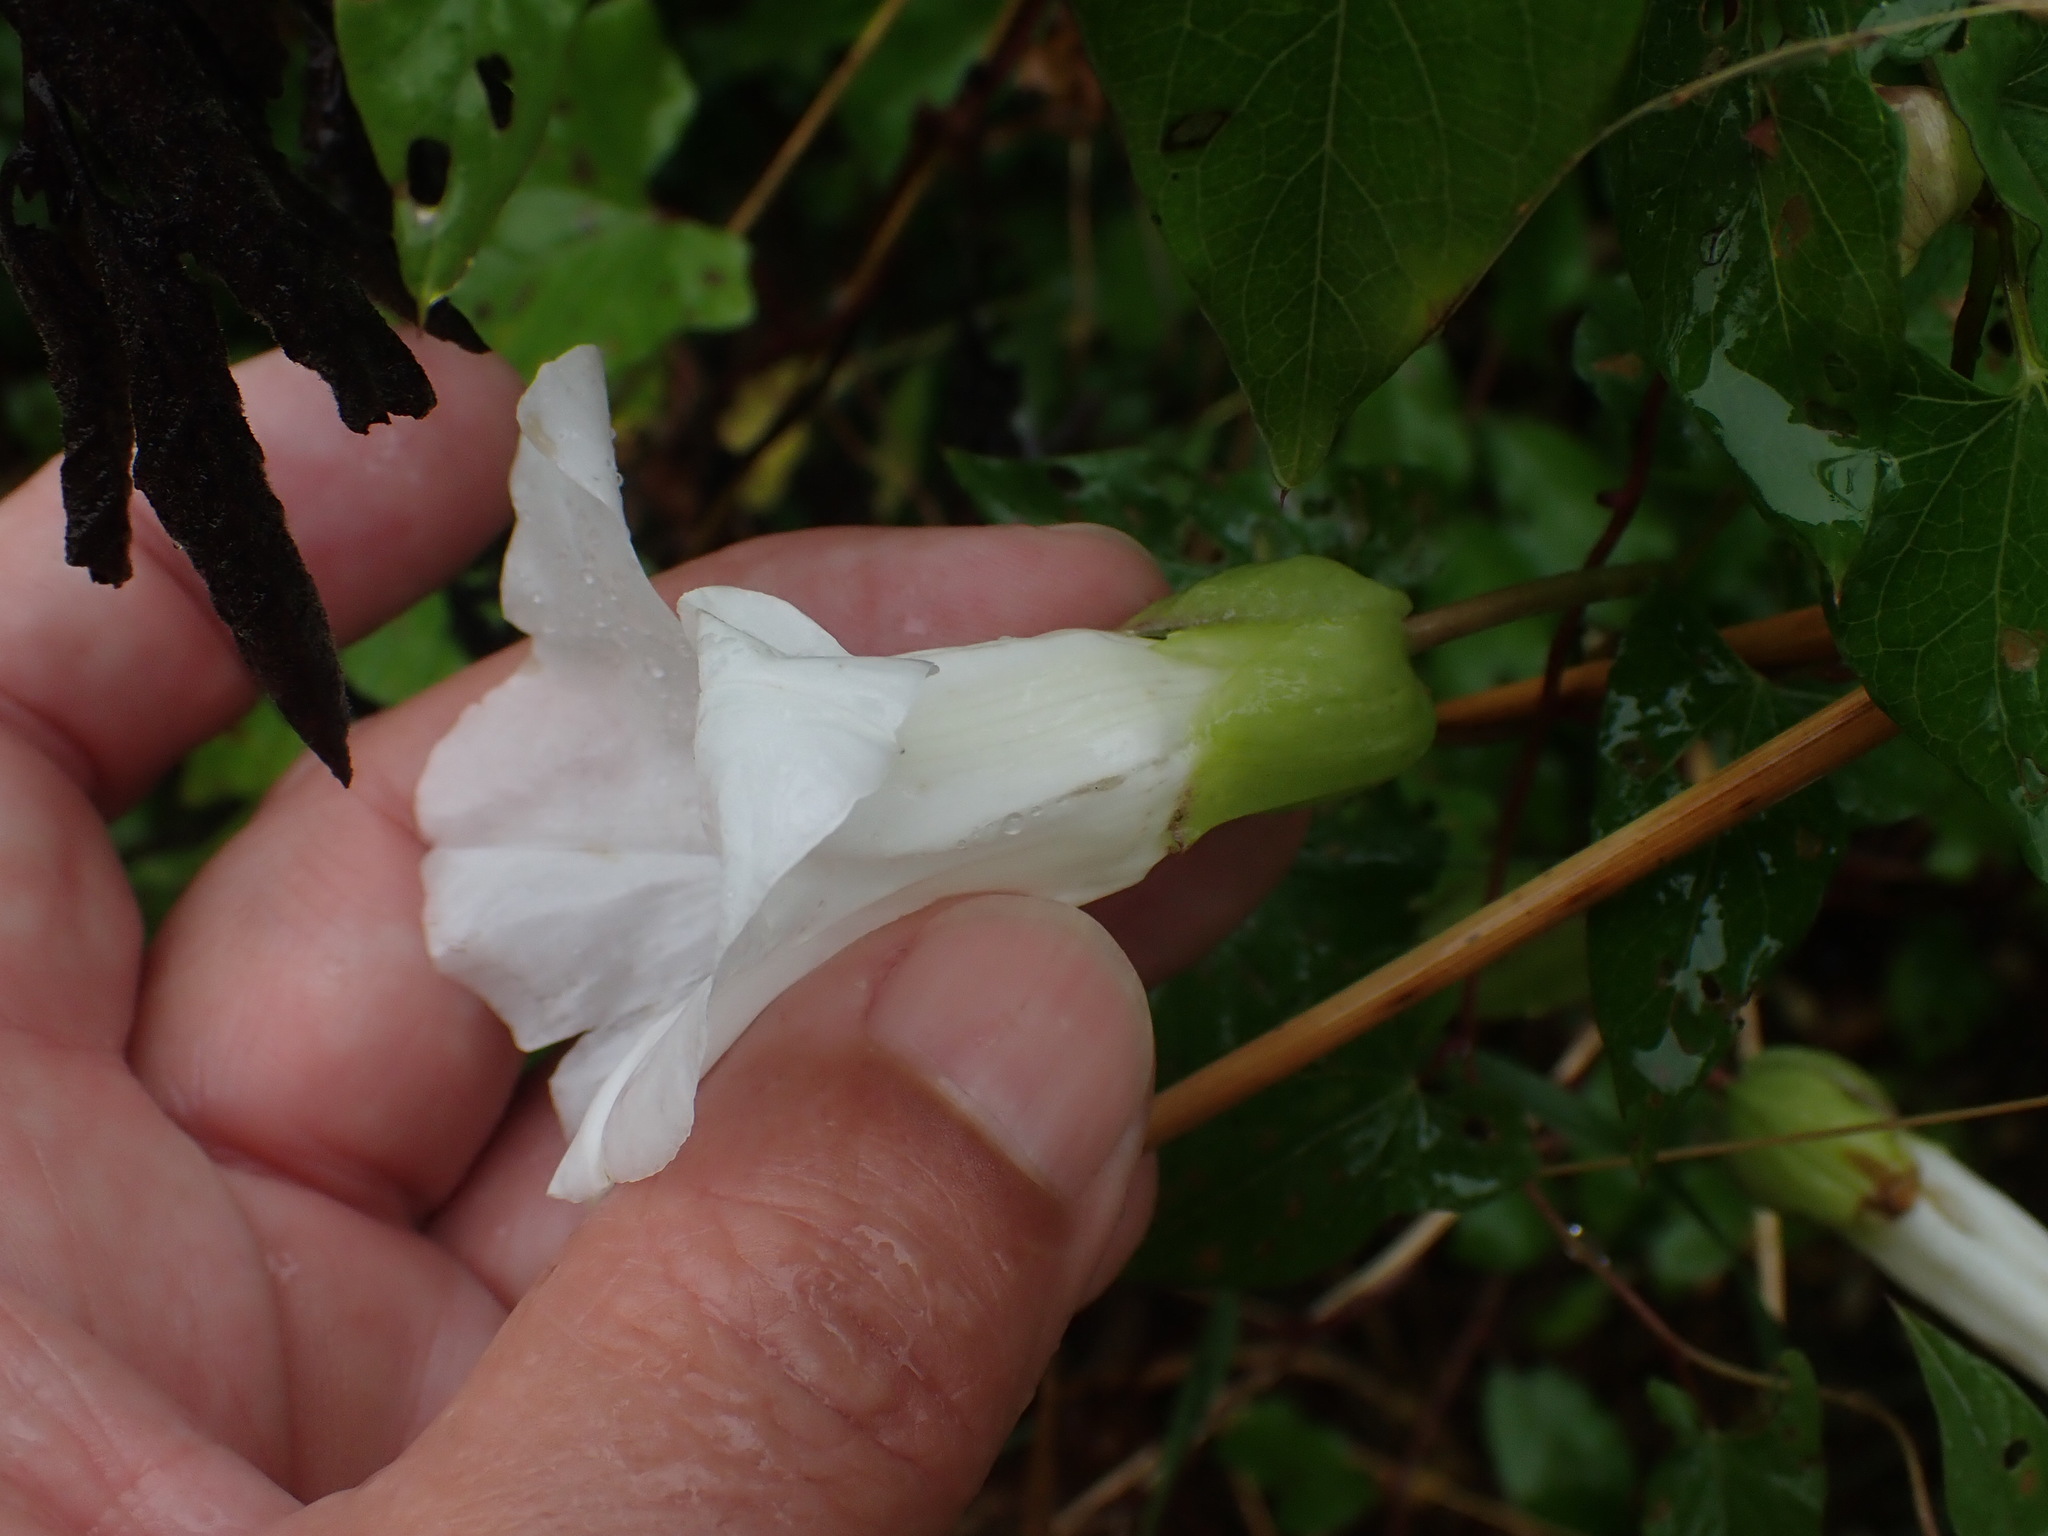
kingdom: Plantae
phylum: Tracheophyta
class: Magnoliopsida
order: Solanales
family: Convolvulaceae
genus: Calystegia
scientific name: Calystegia sepium
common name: Hedge bindweed
